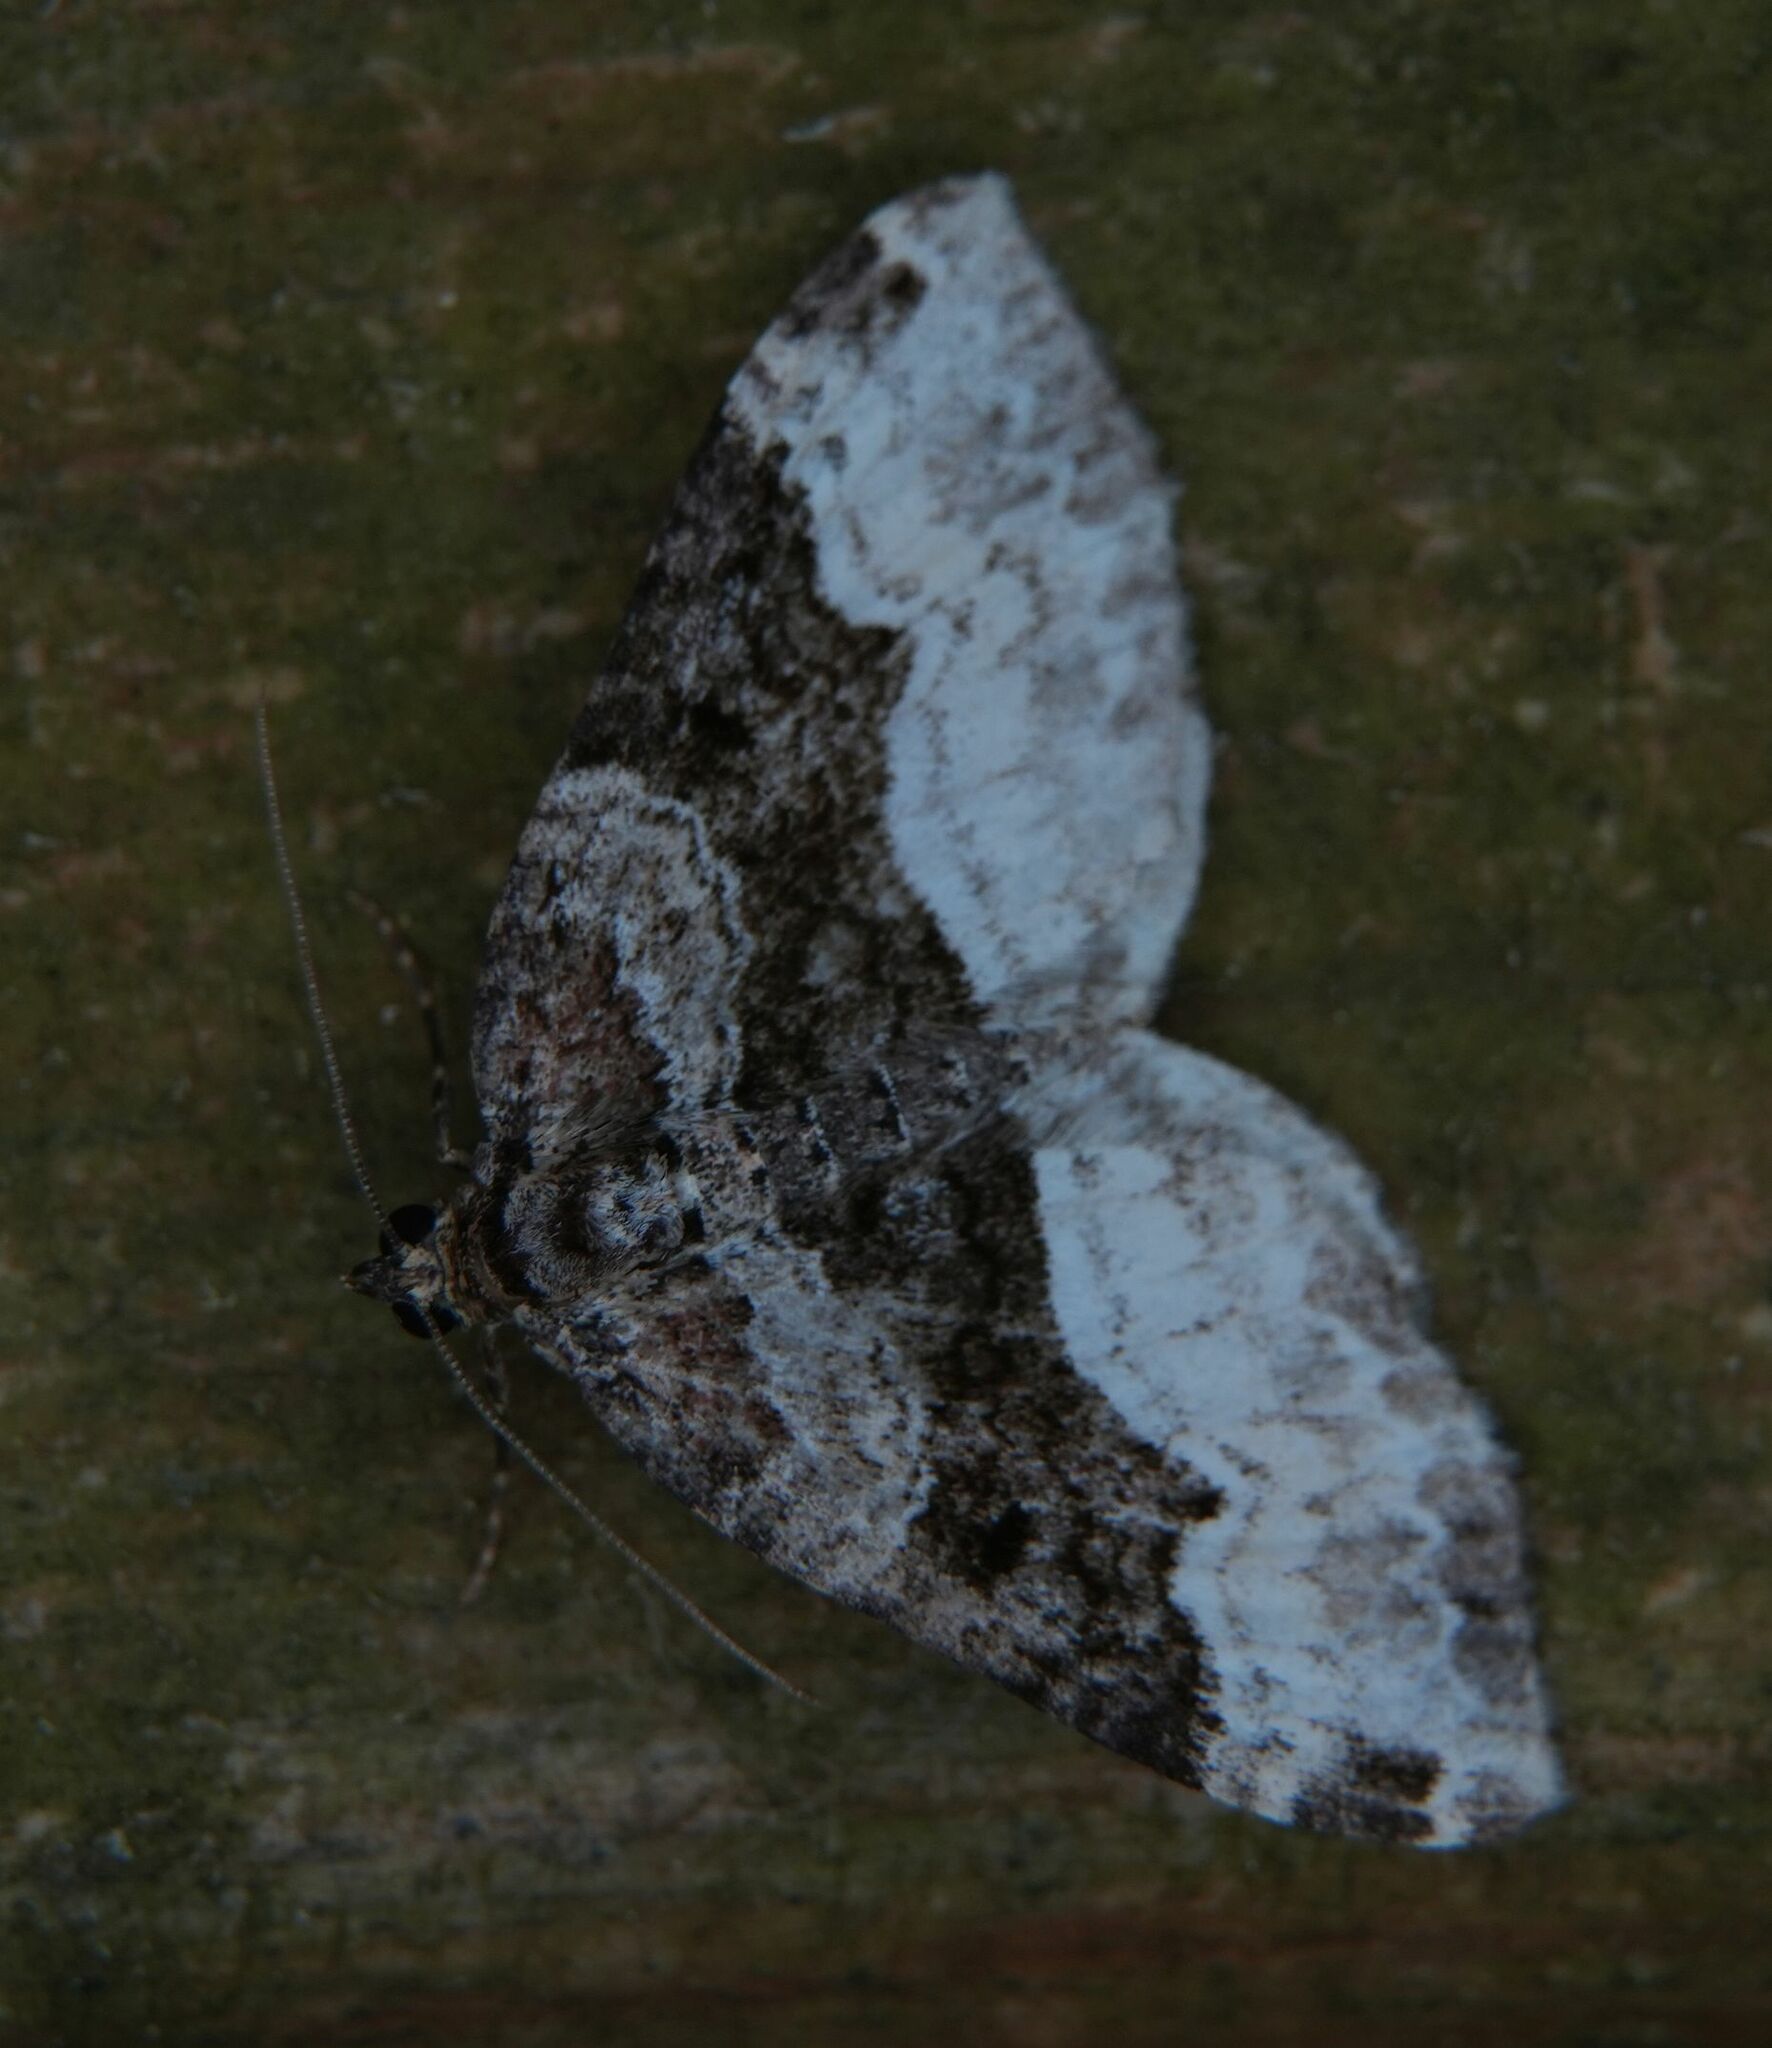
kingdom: Animalia
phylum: Arthropoda
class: Insecta
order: Lepidoptera
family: Geometridae
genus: Euphyia
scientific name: Euphyia intermediata
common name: Sharp-angled carpet
